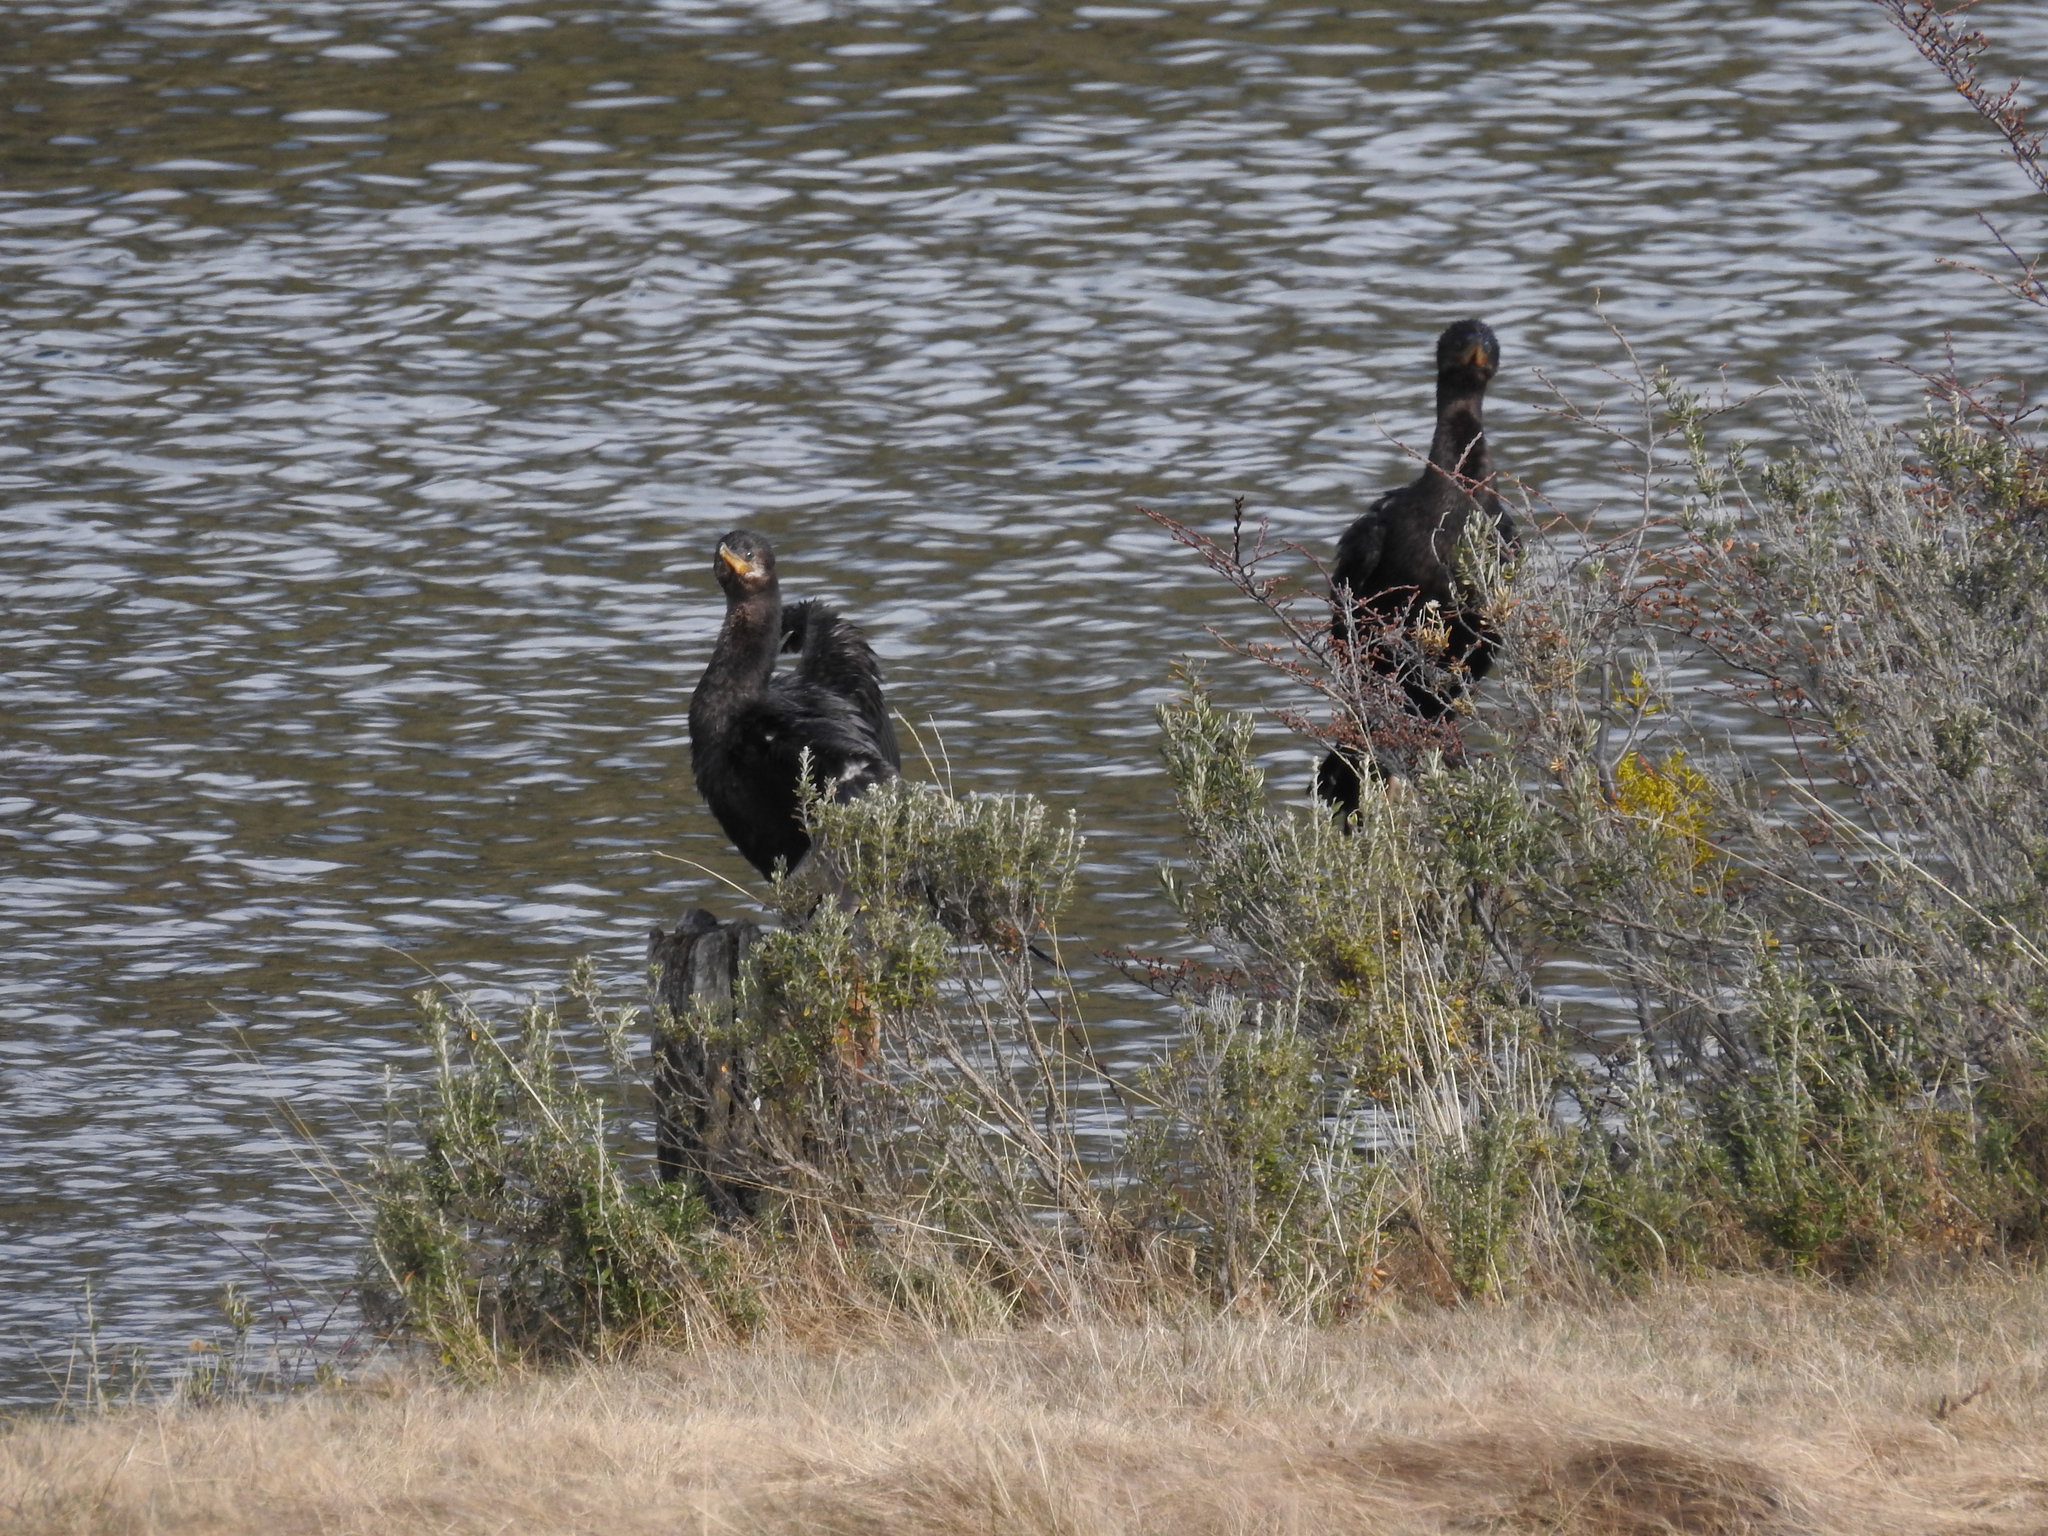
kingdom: Animalia
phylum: Chordata
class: Aves
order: Suliformes
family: Phalacrocoracidae
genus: Phalacrocorax
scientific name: Phalacrocorax brasilianus
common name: Neotropic cormorant
